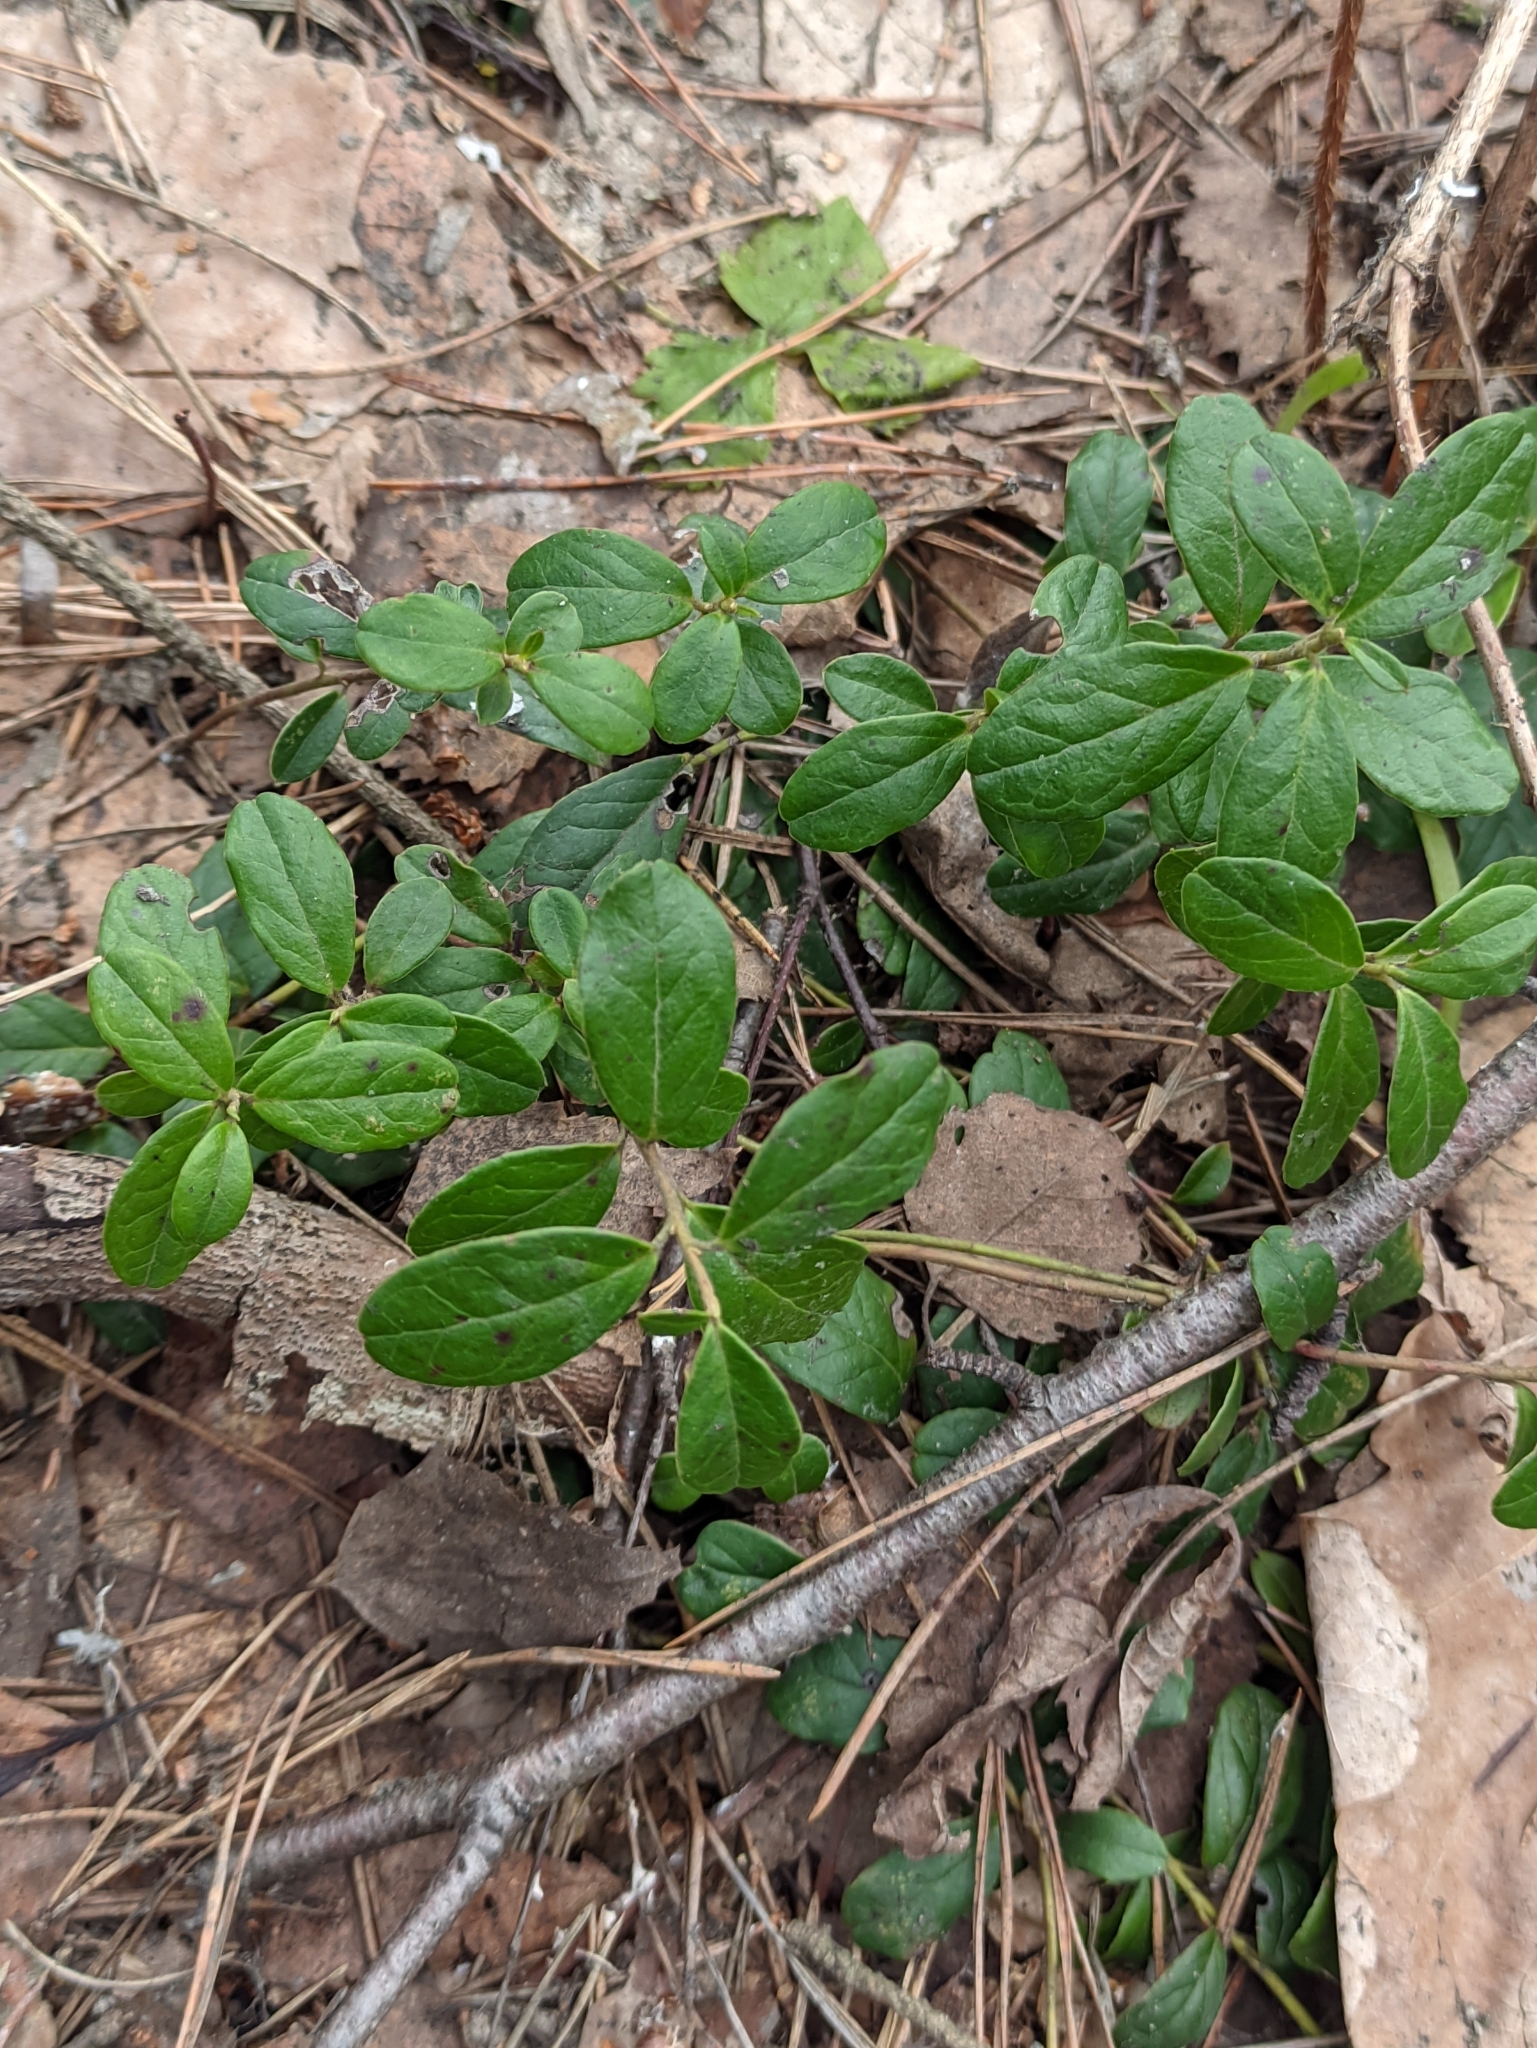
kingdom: Plantae
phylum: Tracheophyta
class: Magnoliopsida
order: Ericales
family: Ericaceae
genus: Vaccinium
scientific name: Vaccinium vitis-idaea
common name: Cowberry
